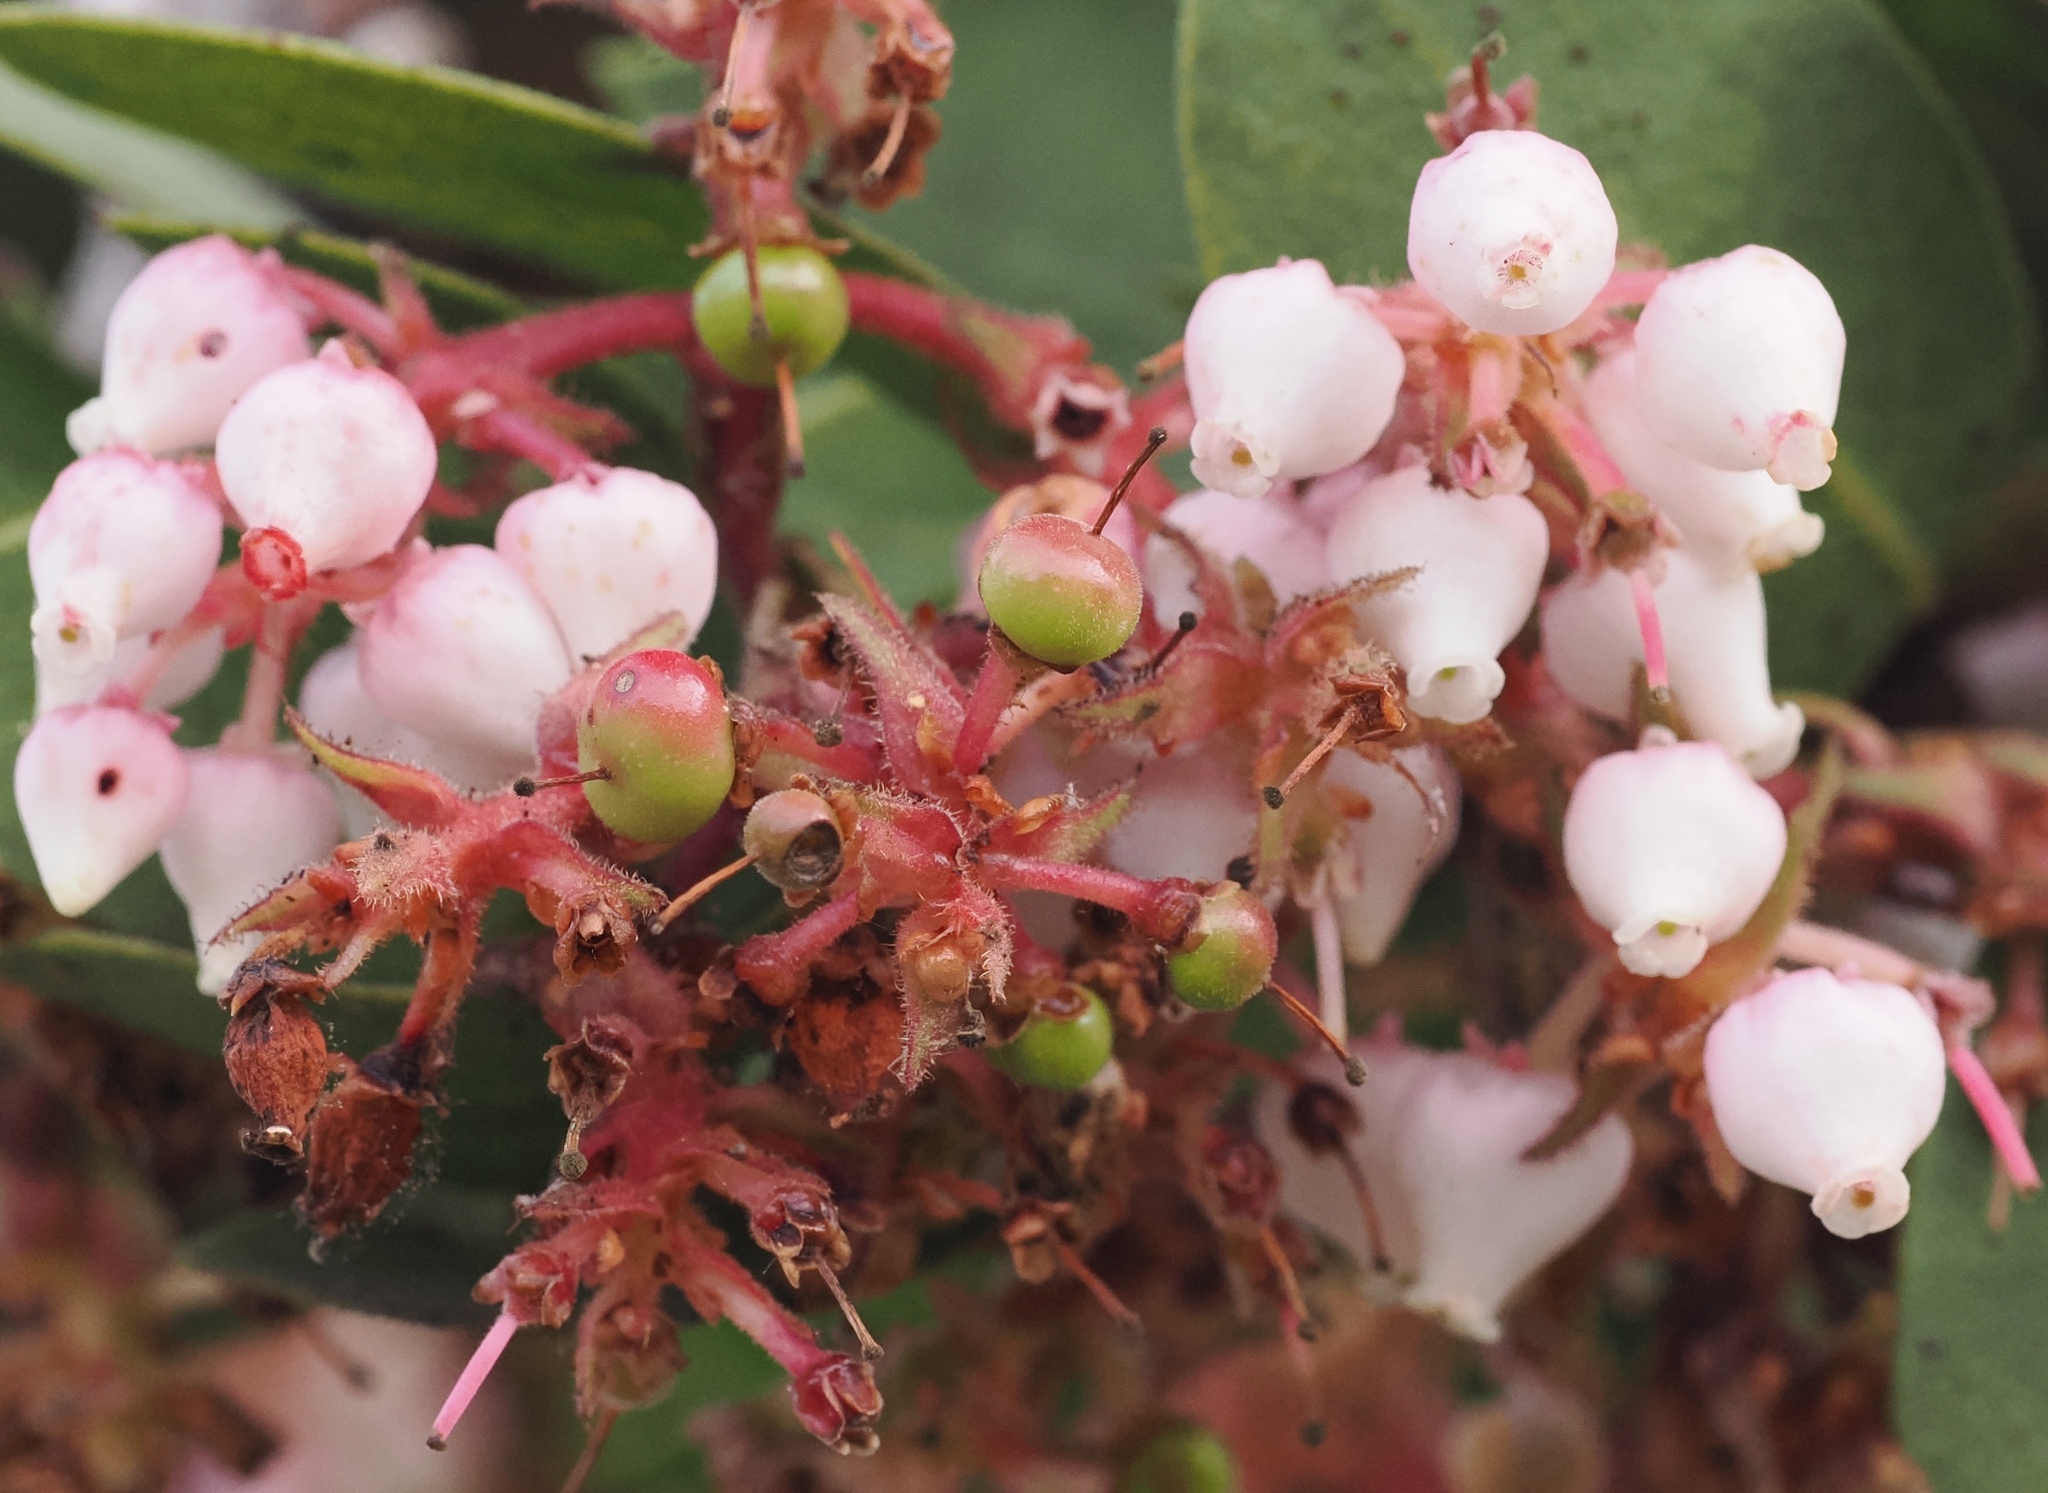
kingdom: Plantae
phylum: Tracheophyta
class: Magnoliopsida
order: Ericales
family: Ericaceae
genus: Arctostaphylos
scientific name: Arctostaphylos montereyensis
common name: Monterey manzanita
